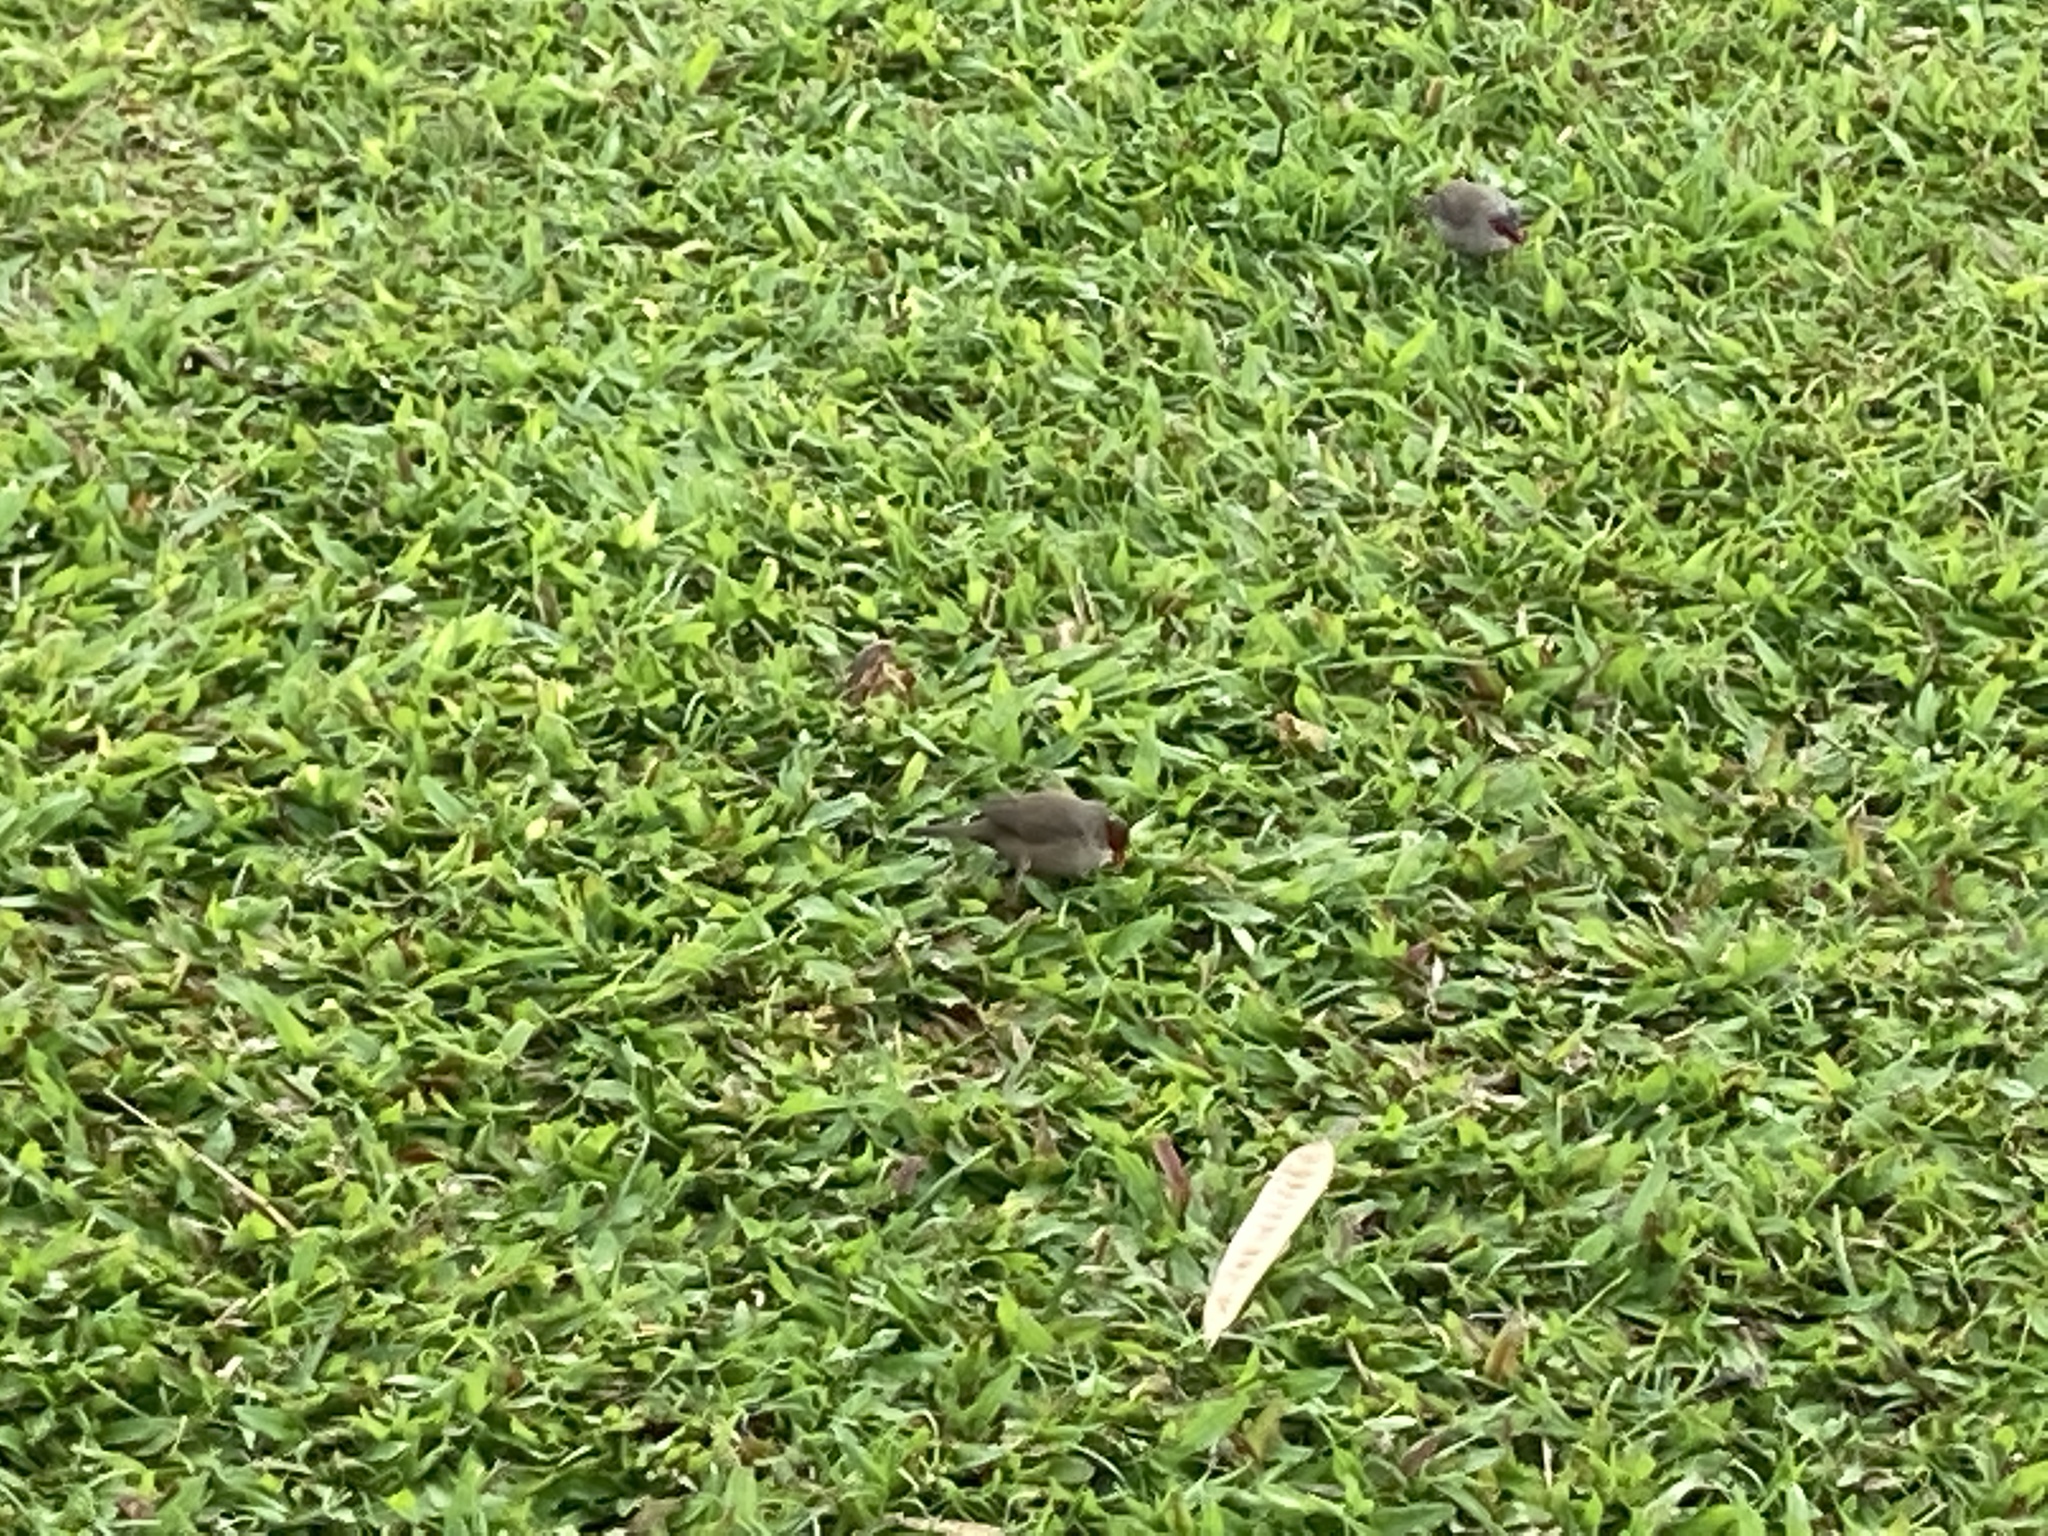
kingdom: Animalia
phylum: Chordata
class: Aves
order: Passeriformes
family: Estrildidae
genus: Estrilda
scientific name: Estrilda astrild
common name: Common waxbill
